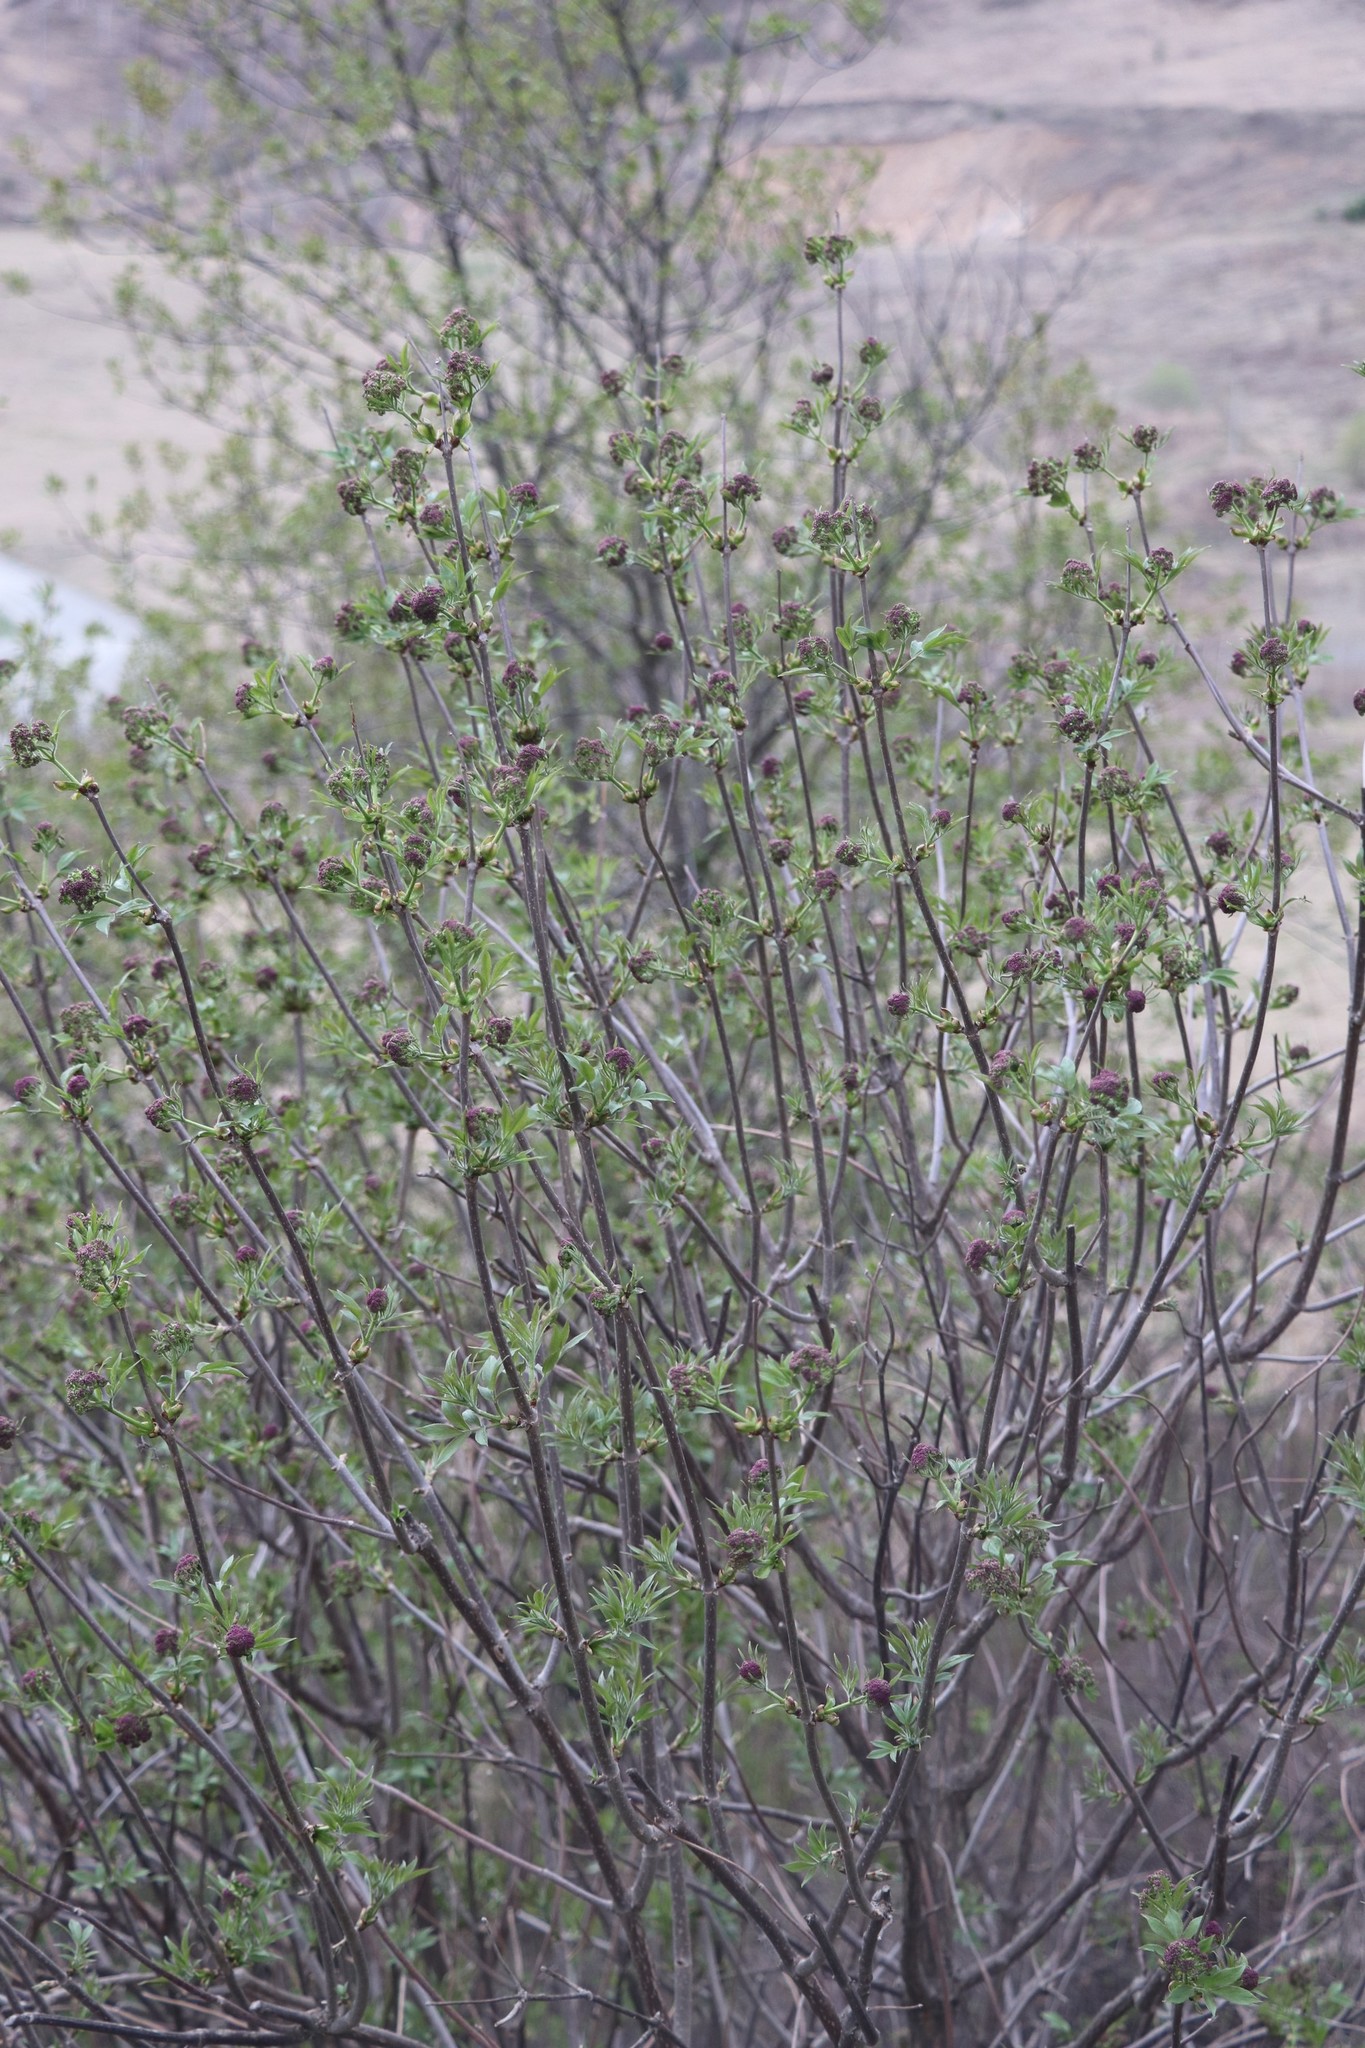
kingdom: Plantae
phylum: Tracheophyta
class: Magnoliopsida
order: Dipsacales
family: Viburnaceae
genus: Sambucus
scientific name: Sambucus sibirica
